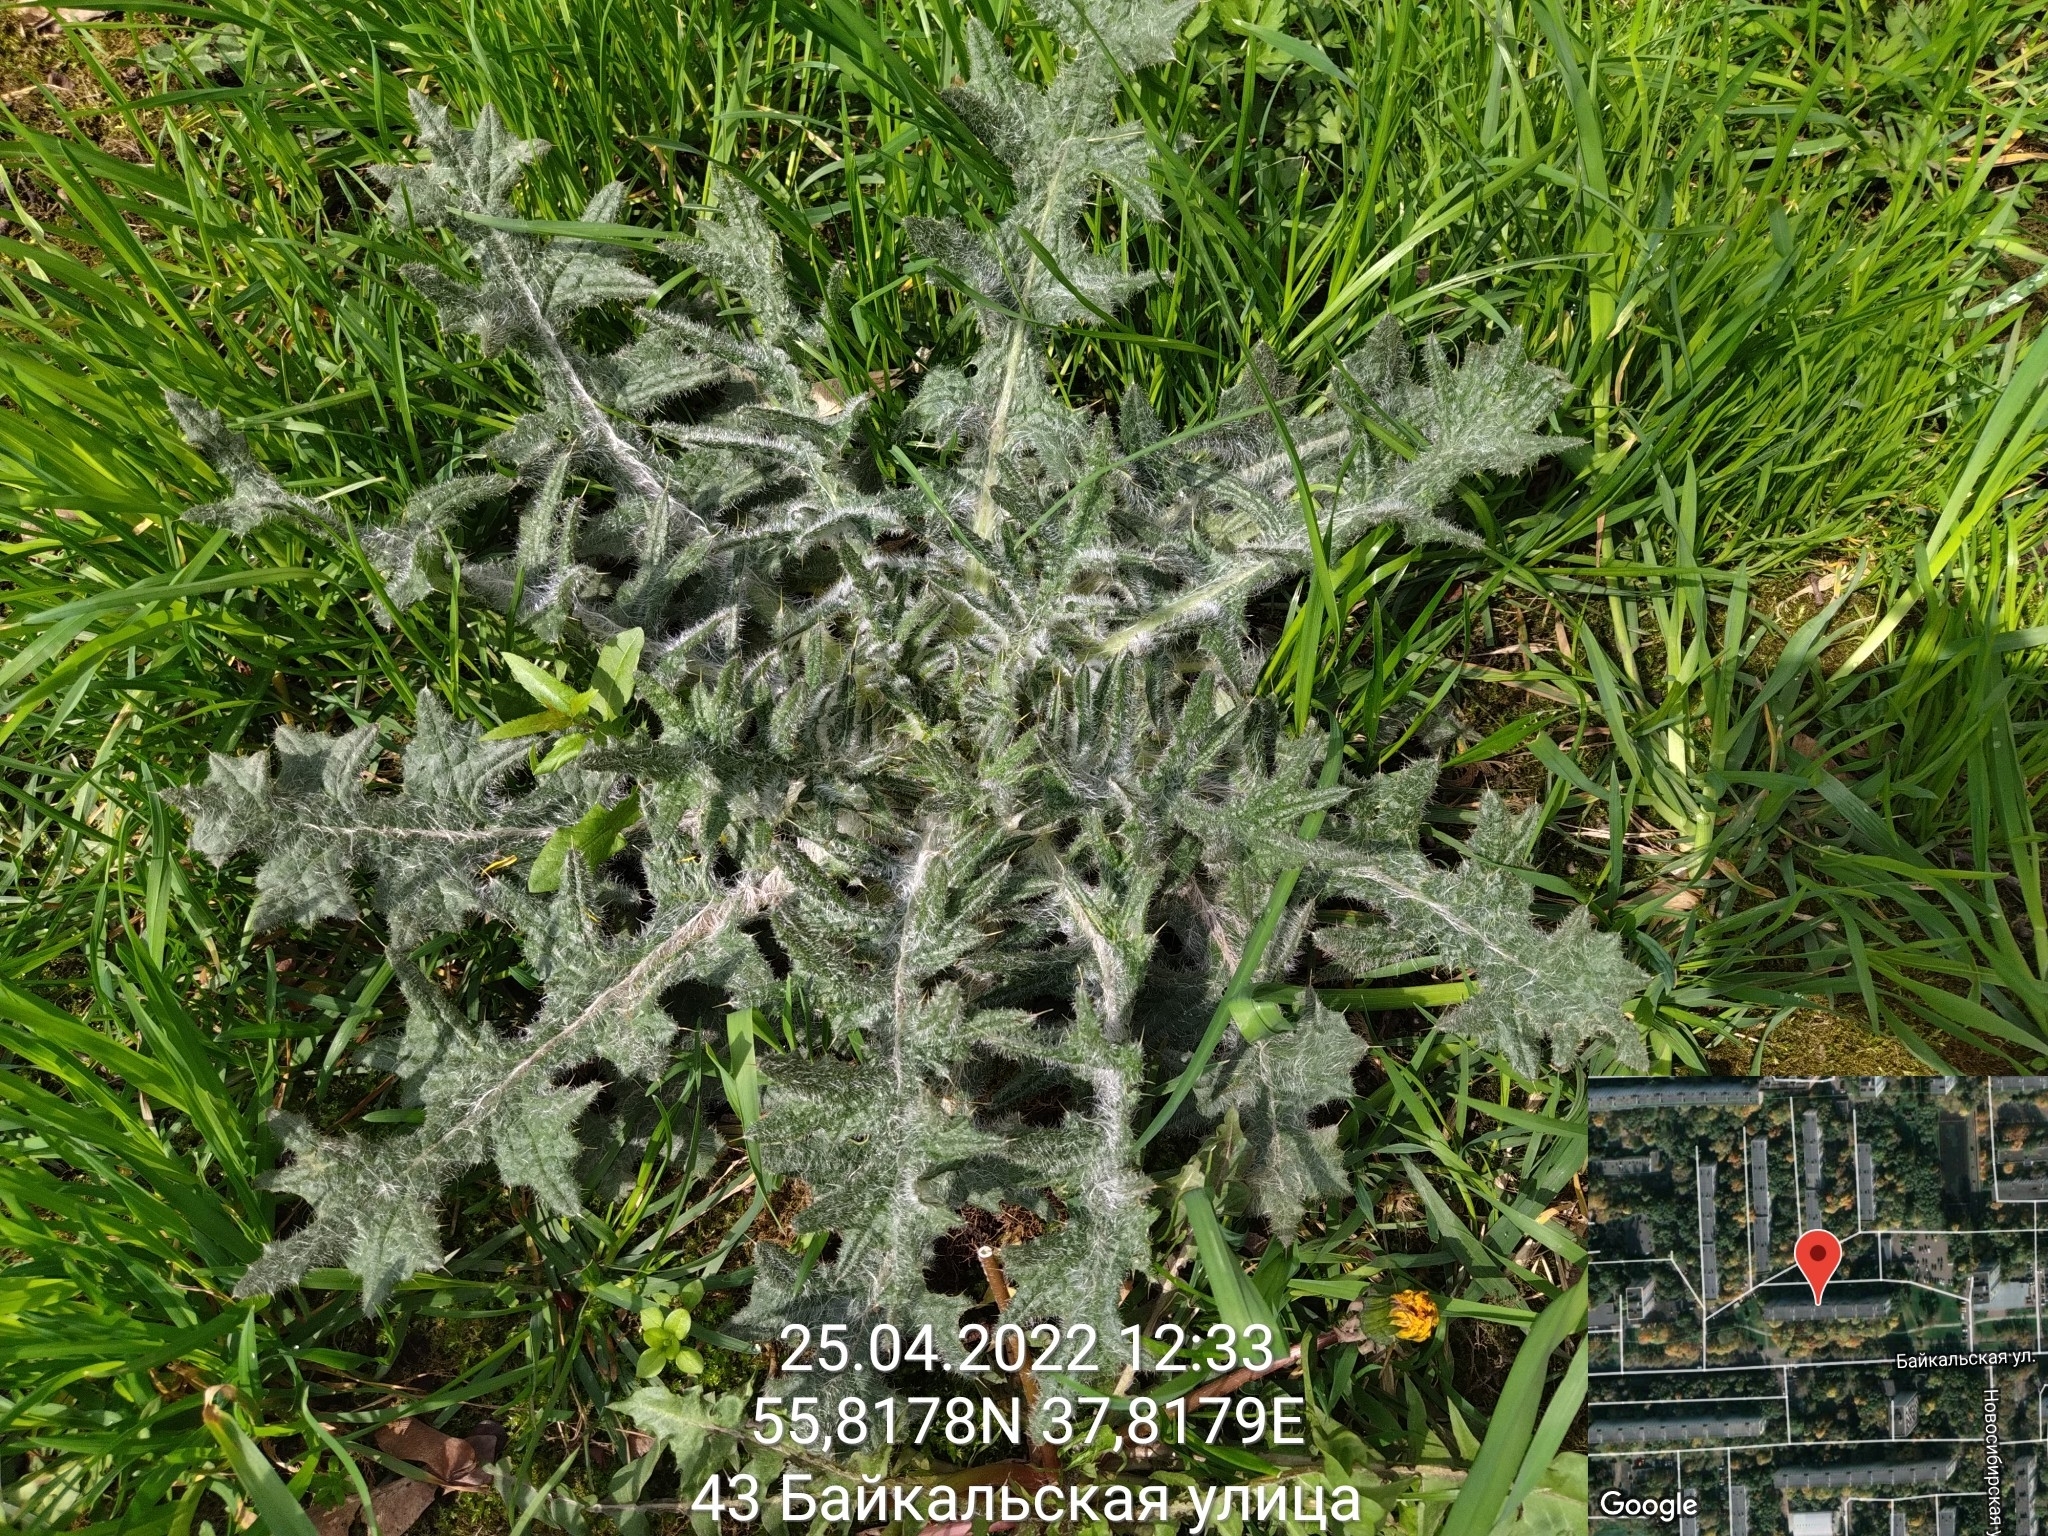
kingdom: Plantae
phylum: Tracheophyta
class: Magnoliopsida
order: Asterales
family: Asteraceae
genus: Cirsium
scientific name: Cirsium vulgare
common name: Bull thistle
